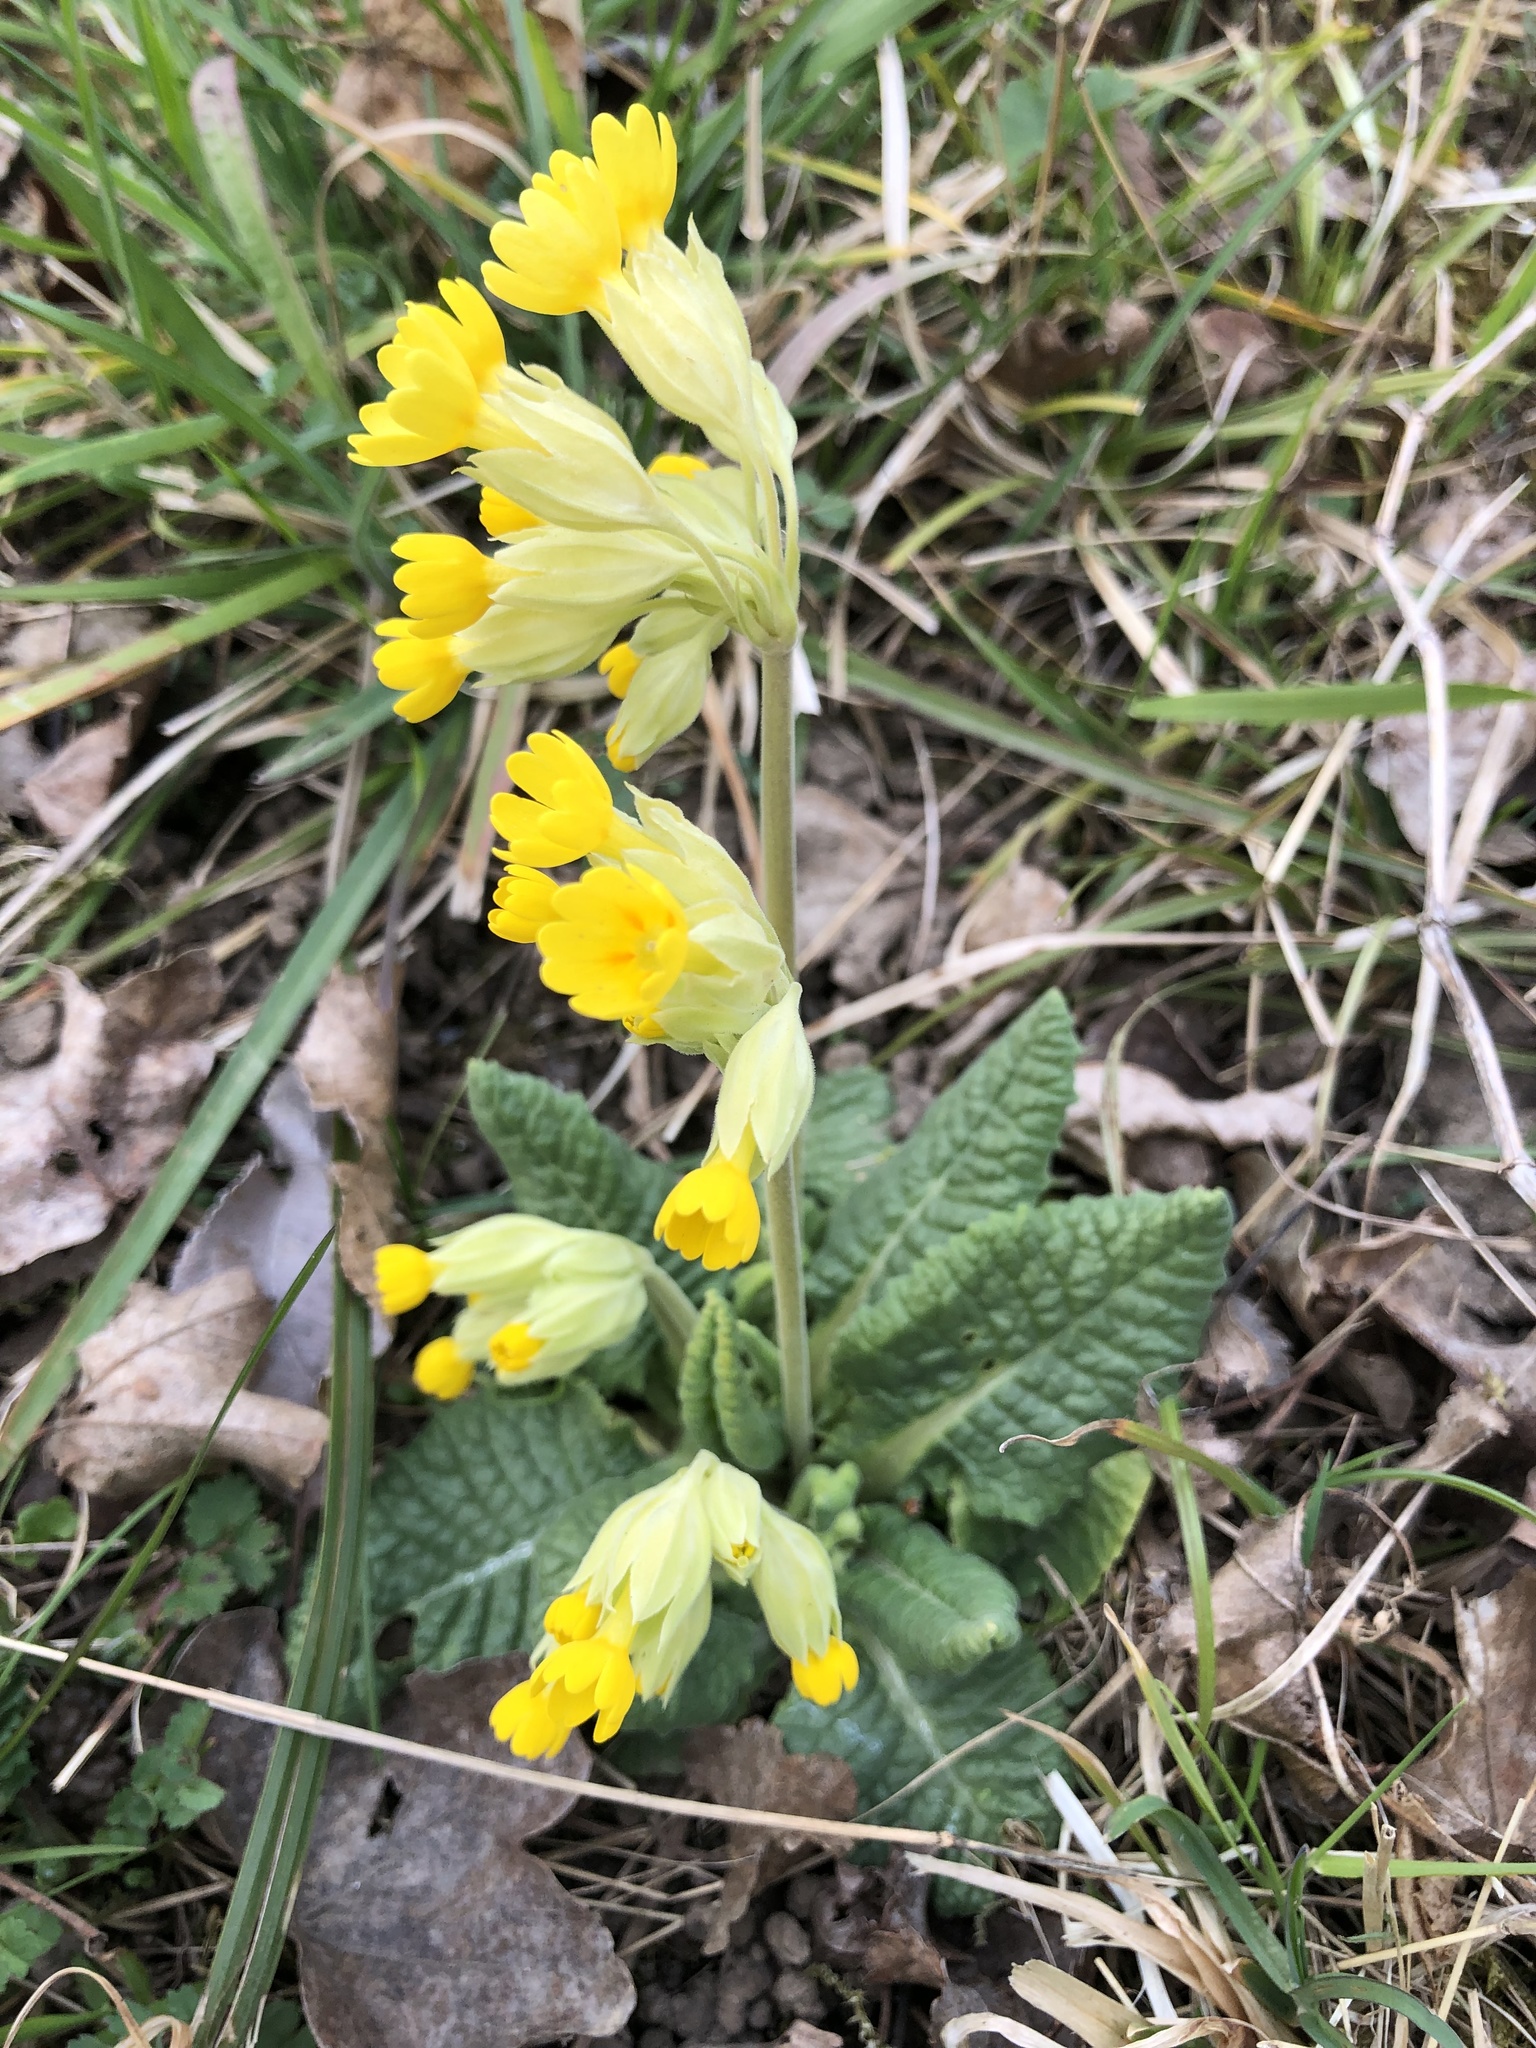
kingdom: Plantae
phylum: Tracheophyta
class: Magnoliopsida
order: Ericales
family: Primulaceae
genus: Primula
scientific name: Primula veris
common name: Cowslip
